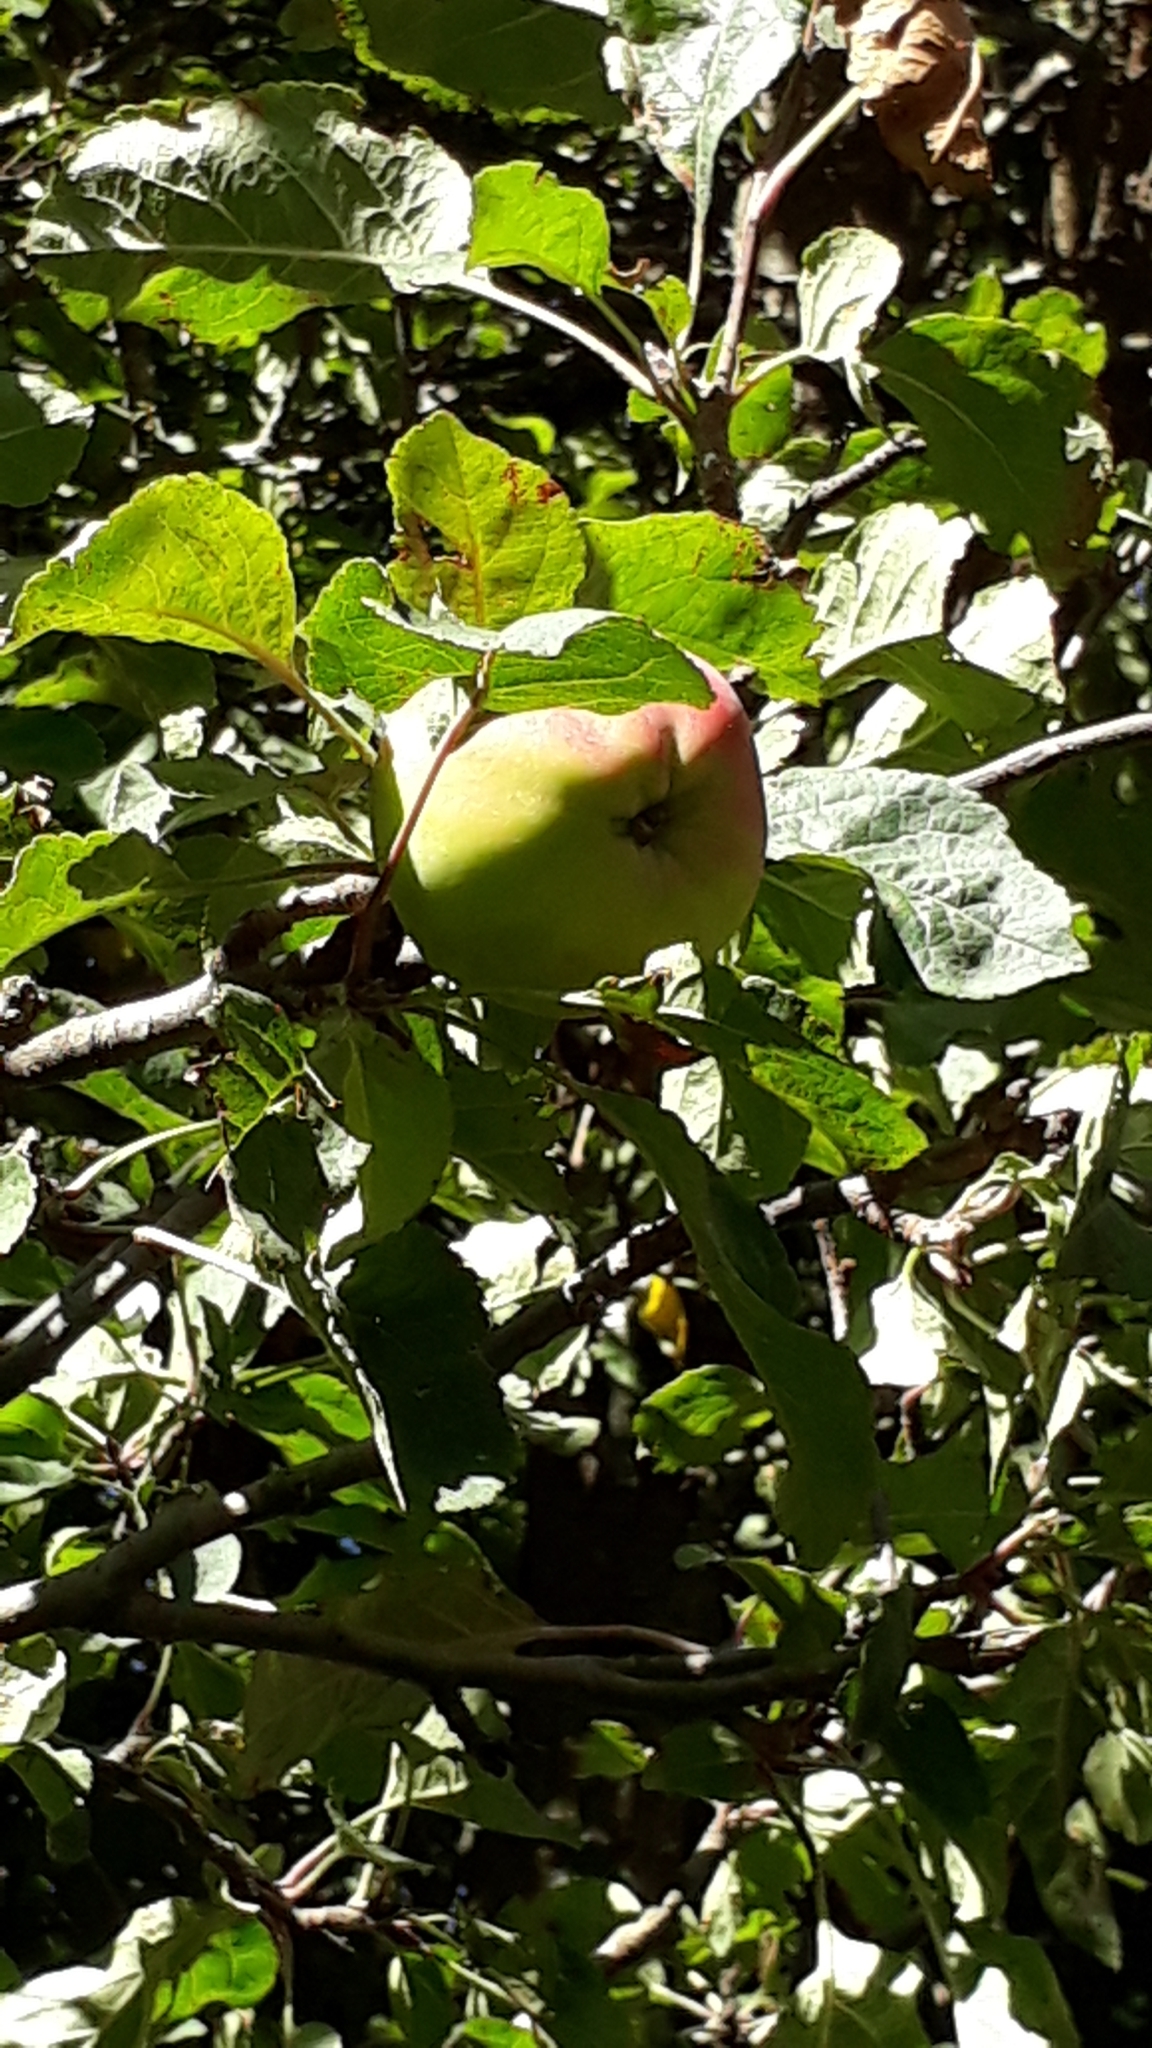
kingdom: Plantae
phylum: Tracheophyta
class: Magnoliopsida
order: Rosales
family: Rosaceae
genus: Malus
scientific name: Malus domestica
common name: Apple
